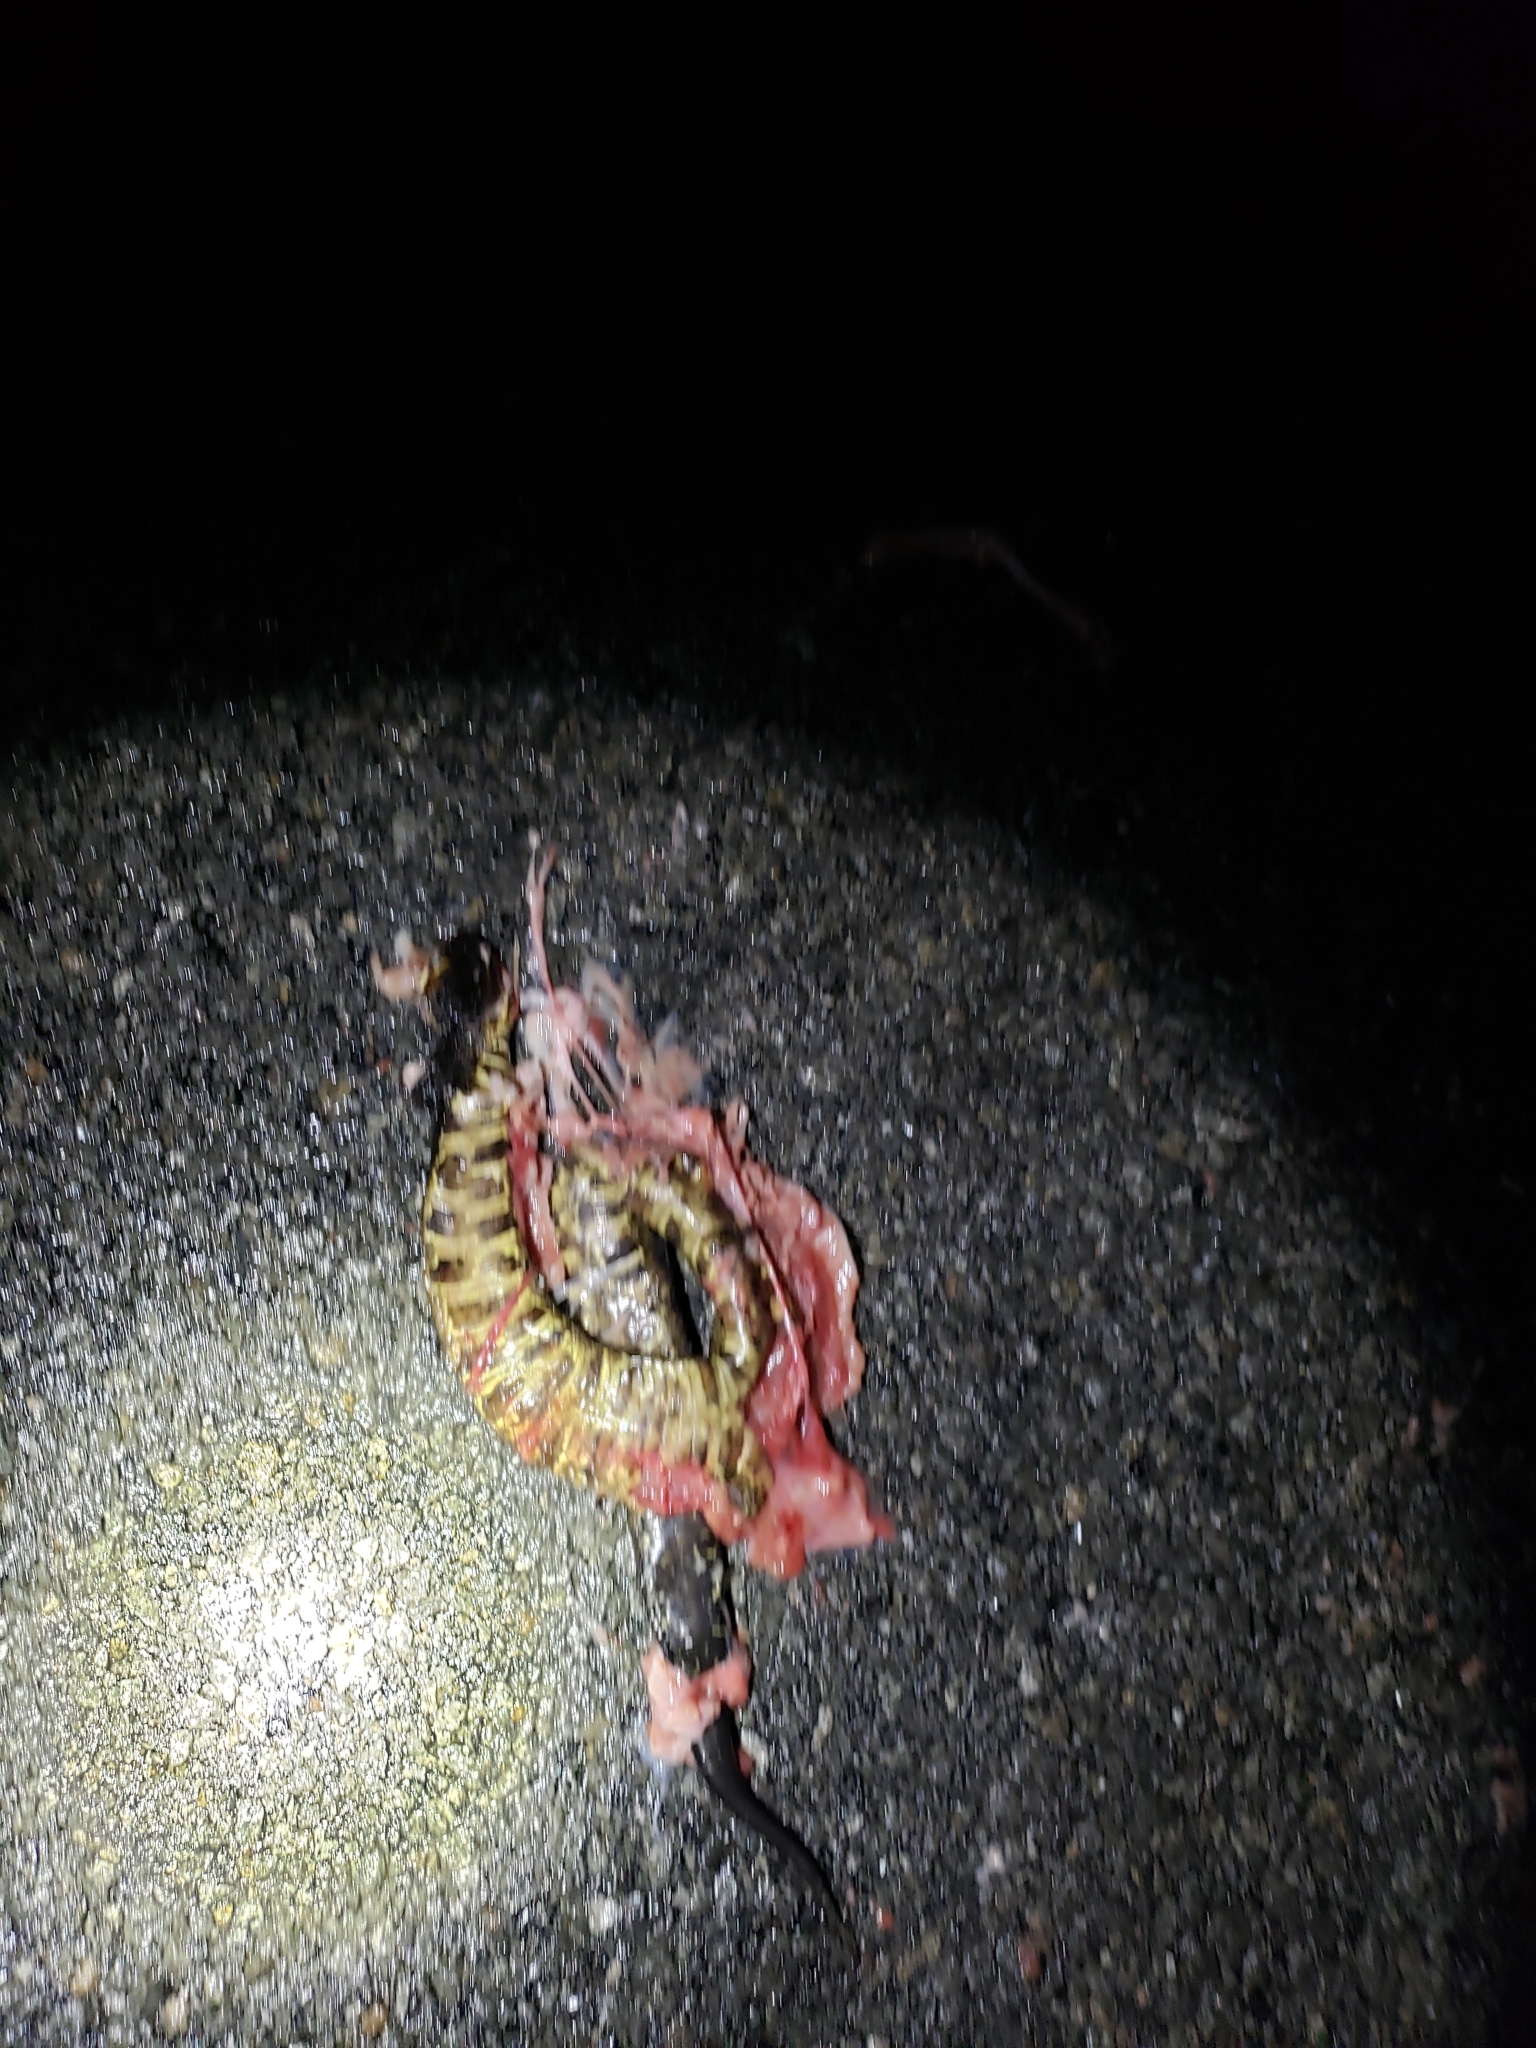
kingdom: Animalia
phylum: Chordata
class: Squamata
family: Viperidae
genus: Agkistrodon
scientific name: Agkistrodon piscivorus
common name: Cottonmouth
